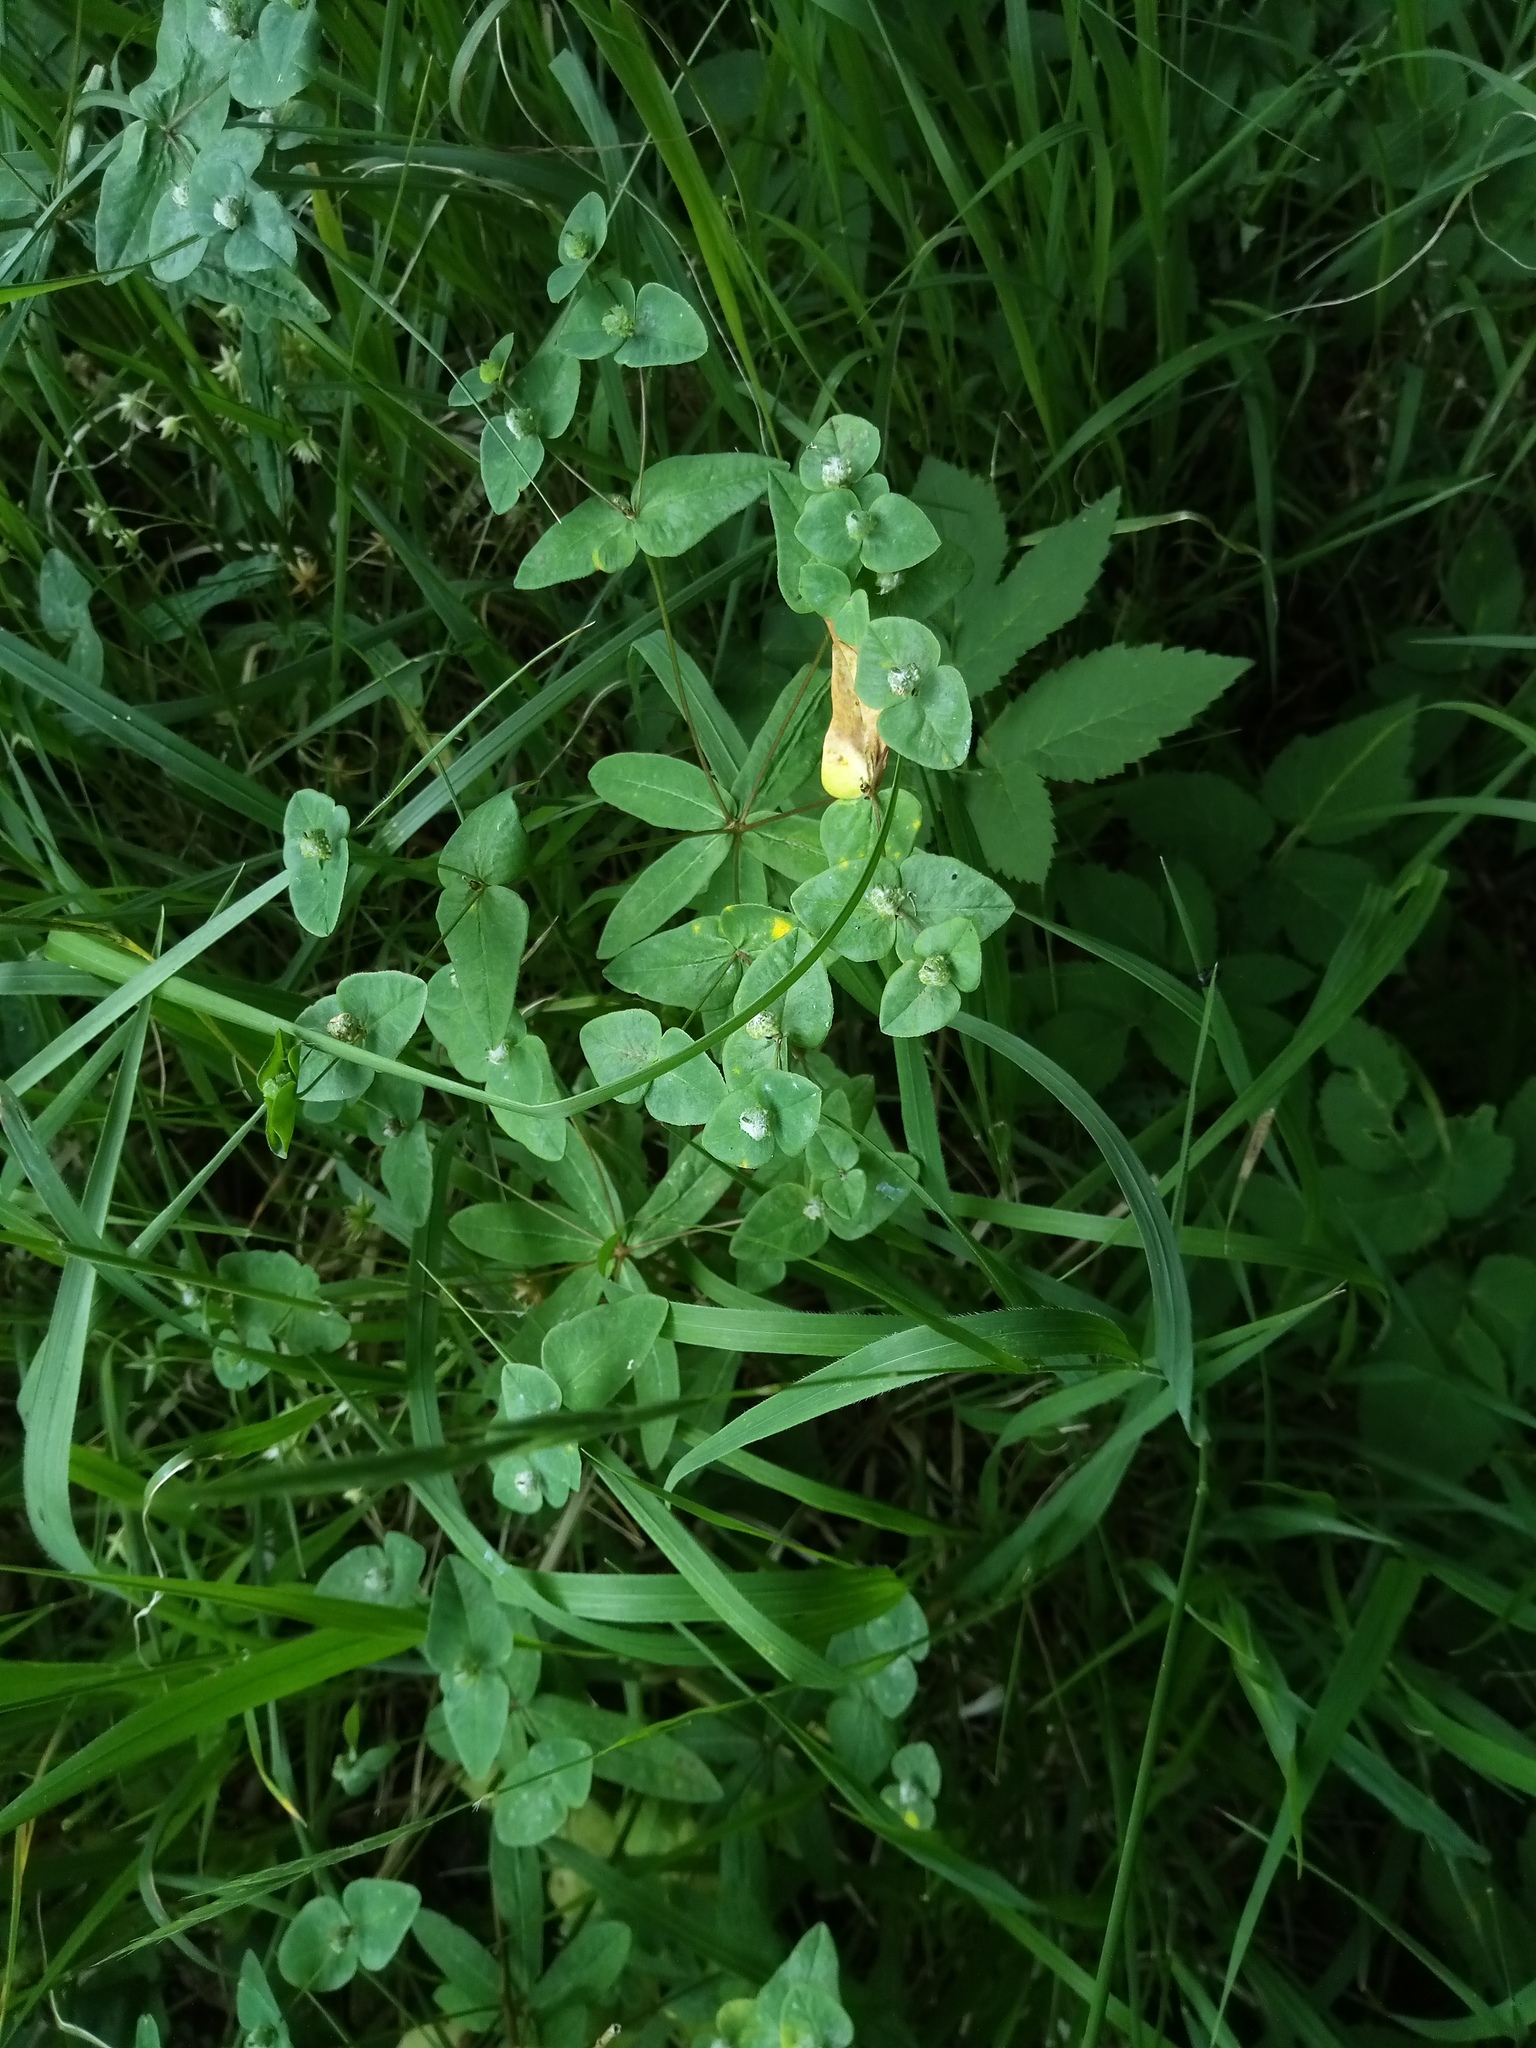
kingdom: Plantae
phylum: Tracheophyta
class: Magnoliopsida
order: Malpighiales
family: Euphorbiaceae
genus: Euphorbia
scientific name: Euphorbia dulcis
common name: Sweet spurge
